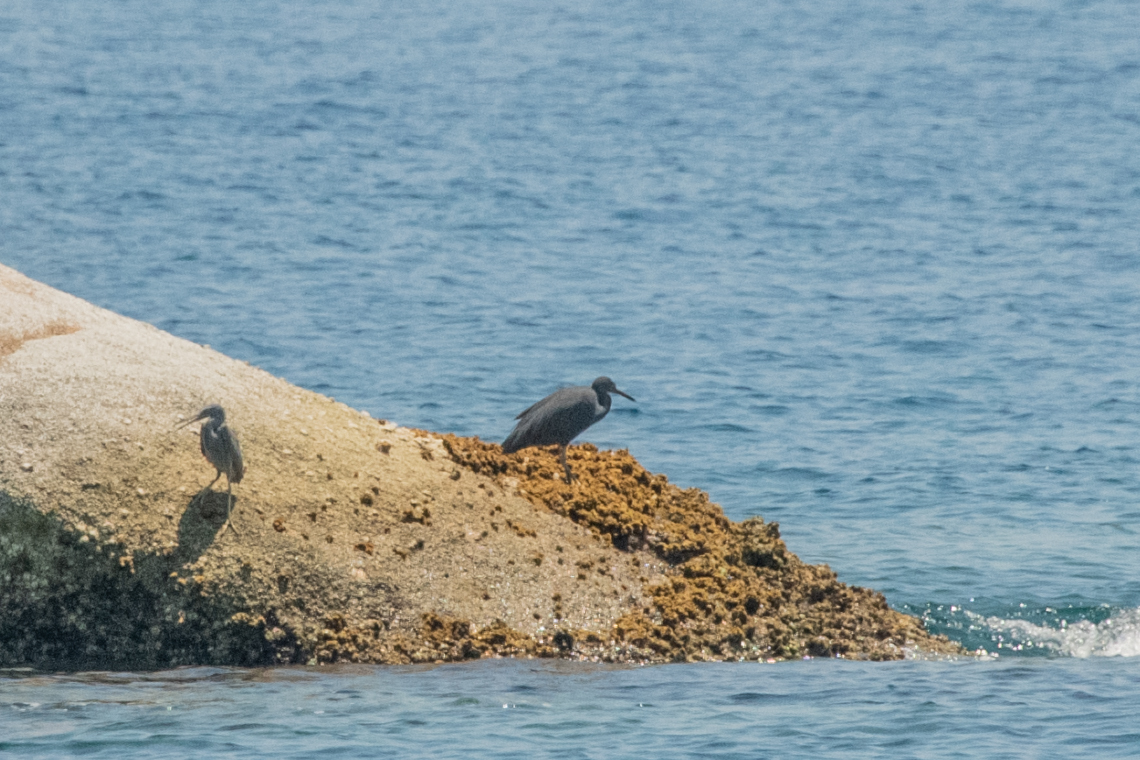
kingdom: Animalia
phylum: Chordata
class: Aves
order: Pelecaniformes
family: Ardeidae
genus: Egretta
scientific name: Egretta sacra
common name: Pacific reef heron
